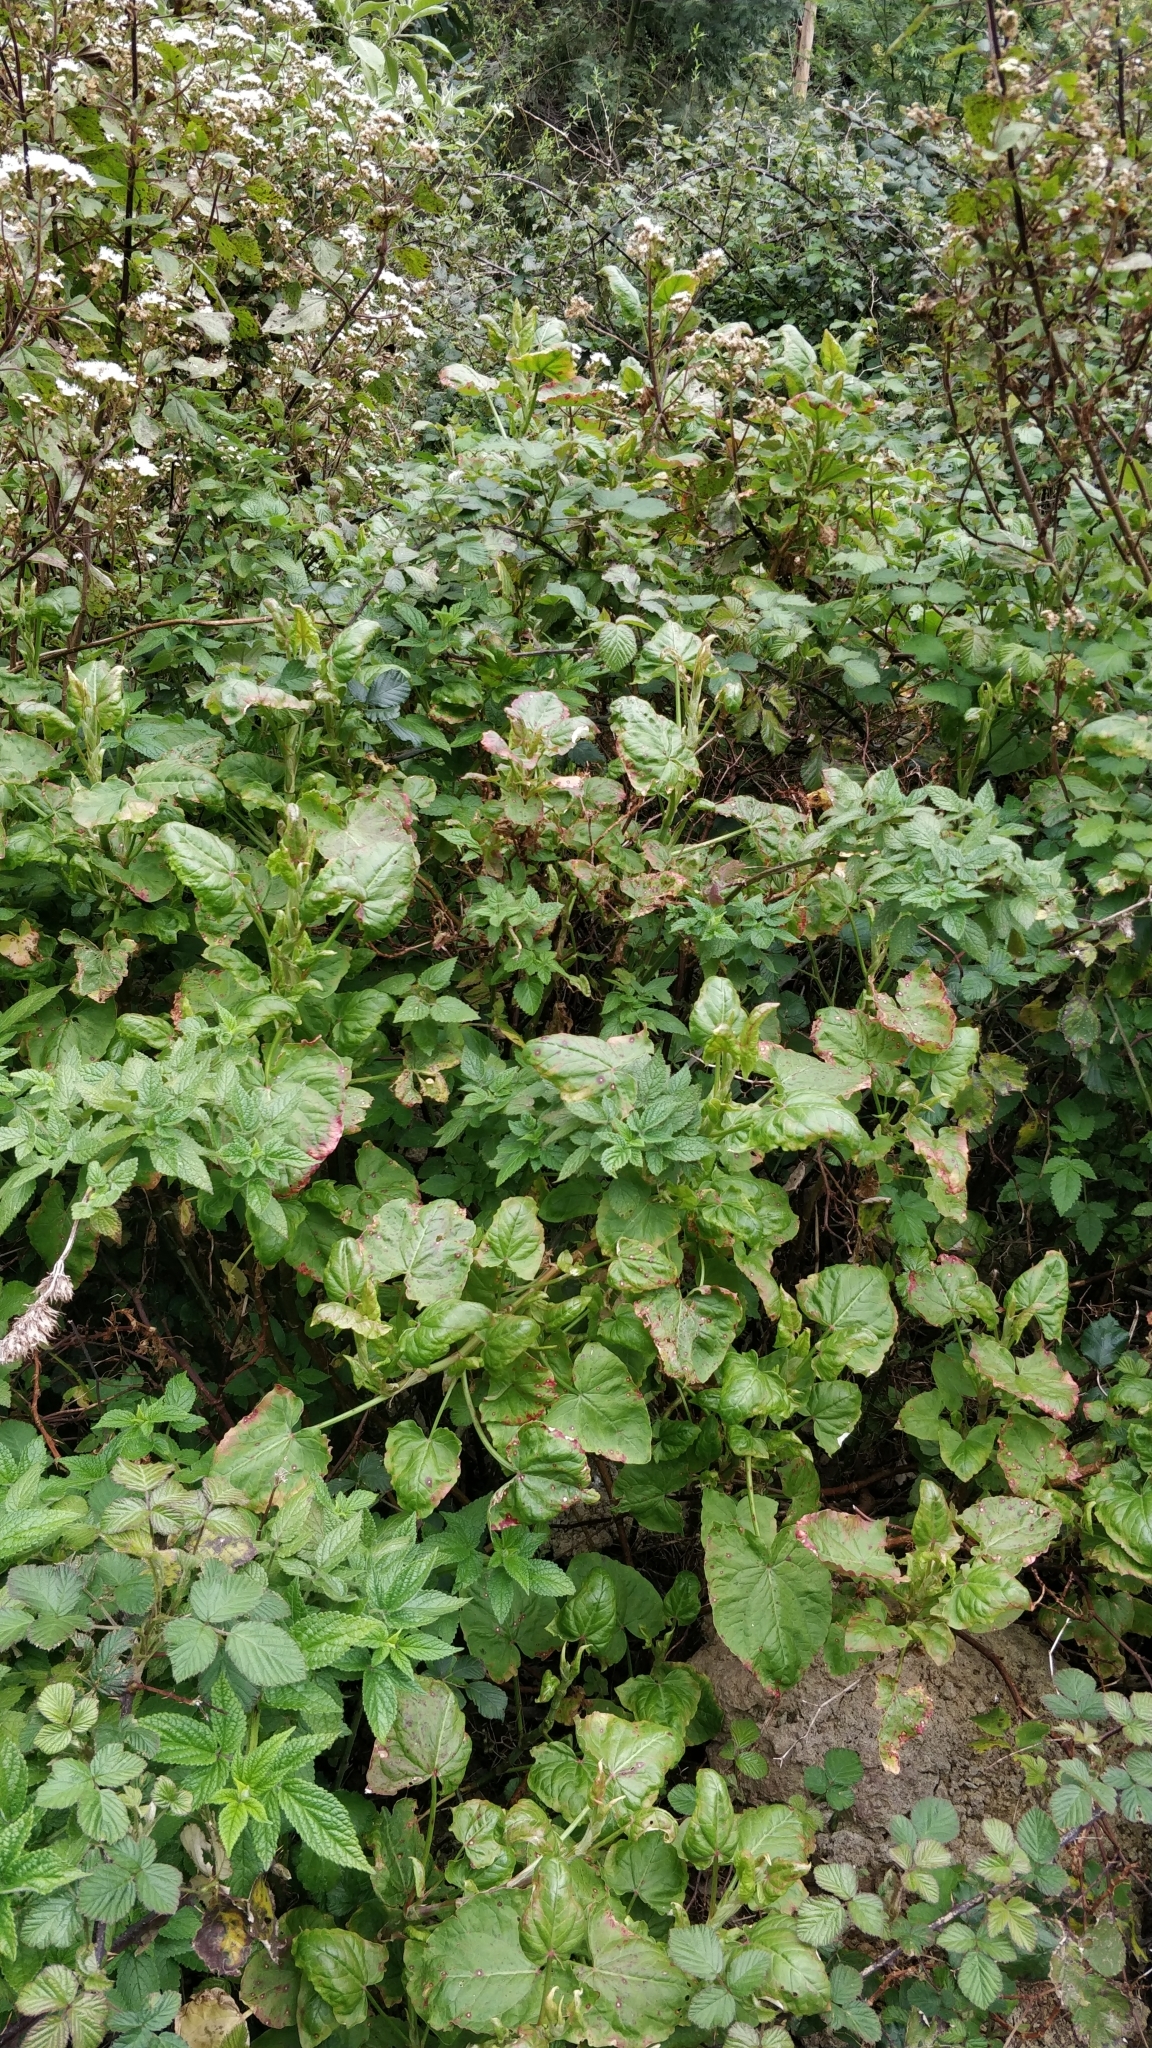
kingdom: Plantae
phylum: Tracheophyta
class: Magnoliopsida
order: Caryophyllales
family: Polygonaceae
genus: Rumex
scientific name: Rumex maderensis
